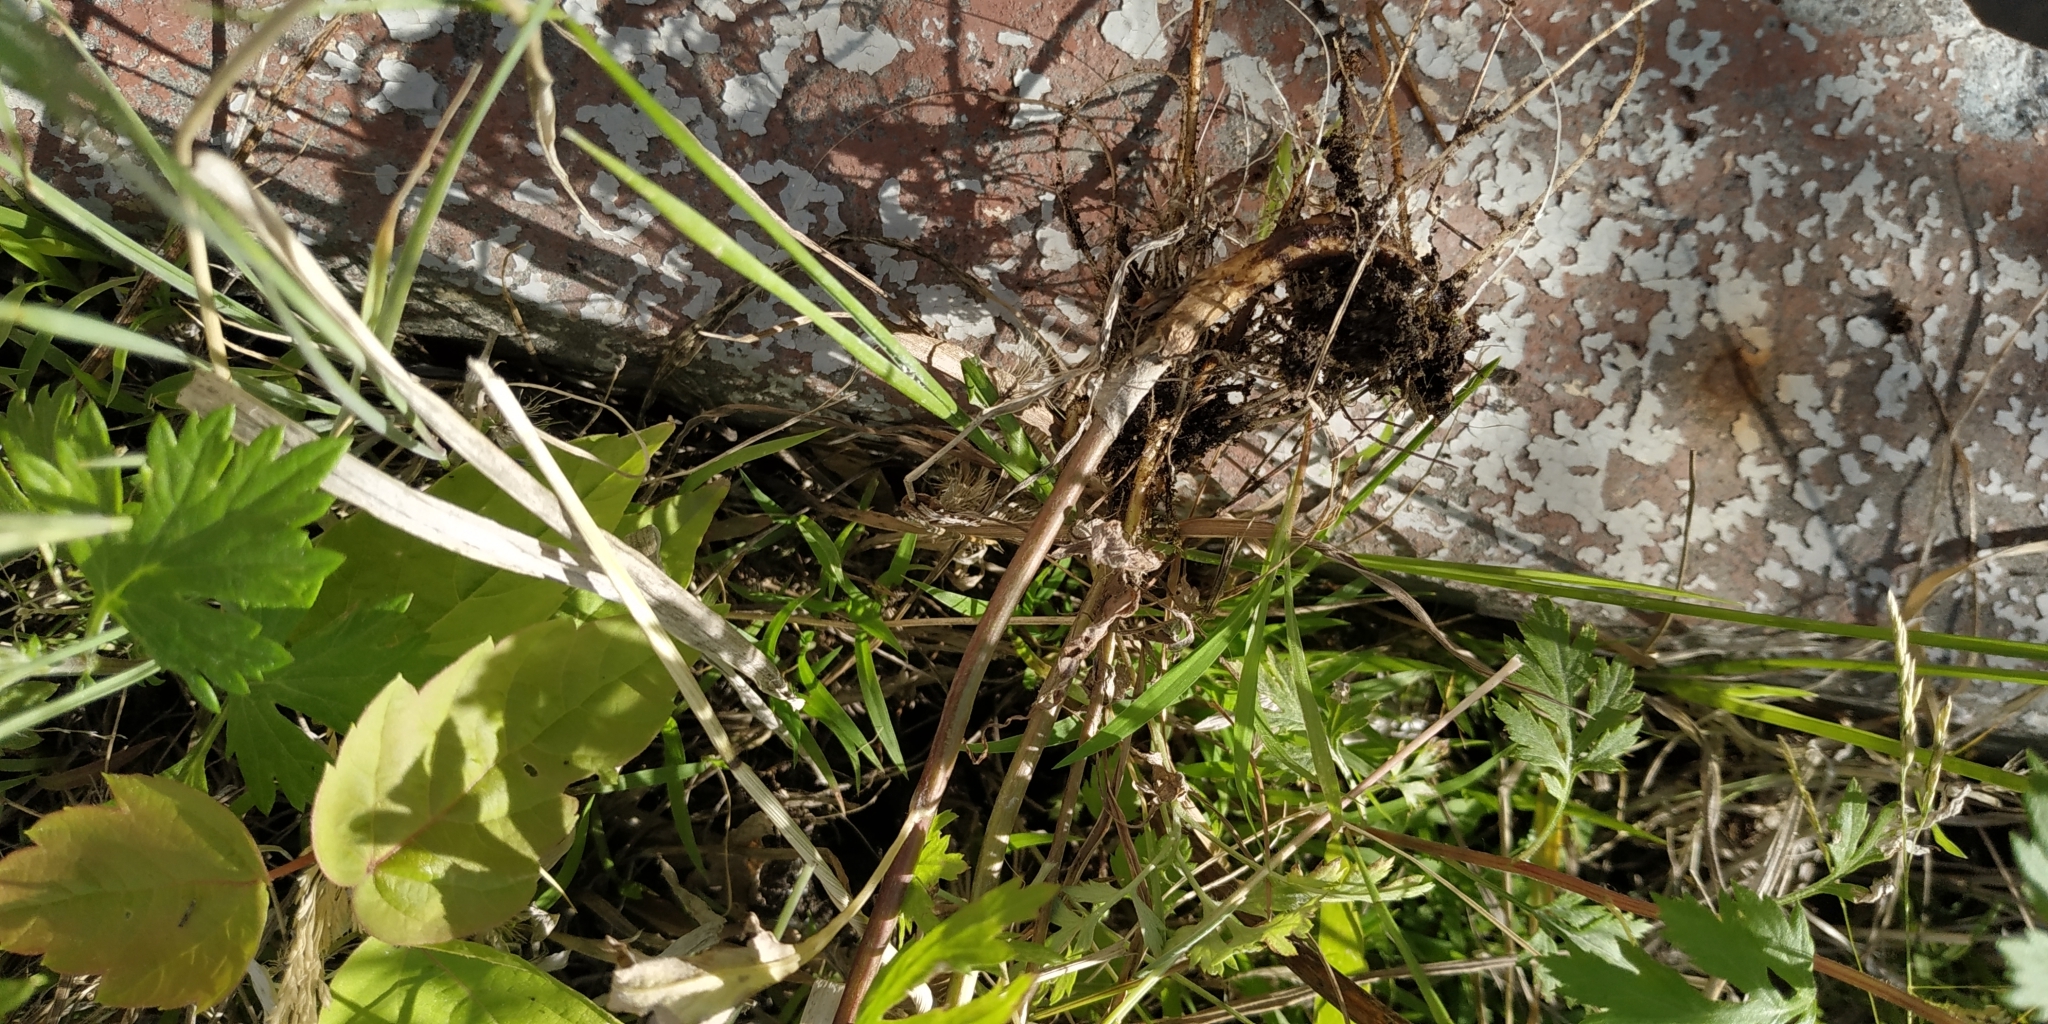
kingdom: Plantae
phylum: Tracheophyta
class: Magnoliopsida
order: Asterales
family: Asteraceae
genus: Artemisia
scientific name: Artemisia vulgaris
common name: Mugwort
